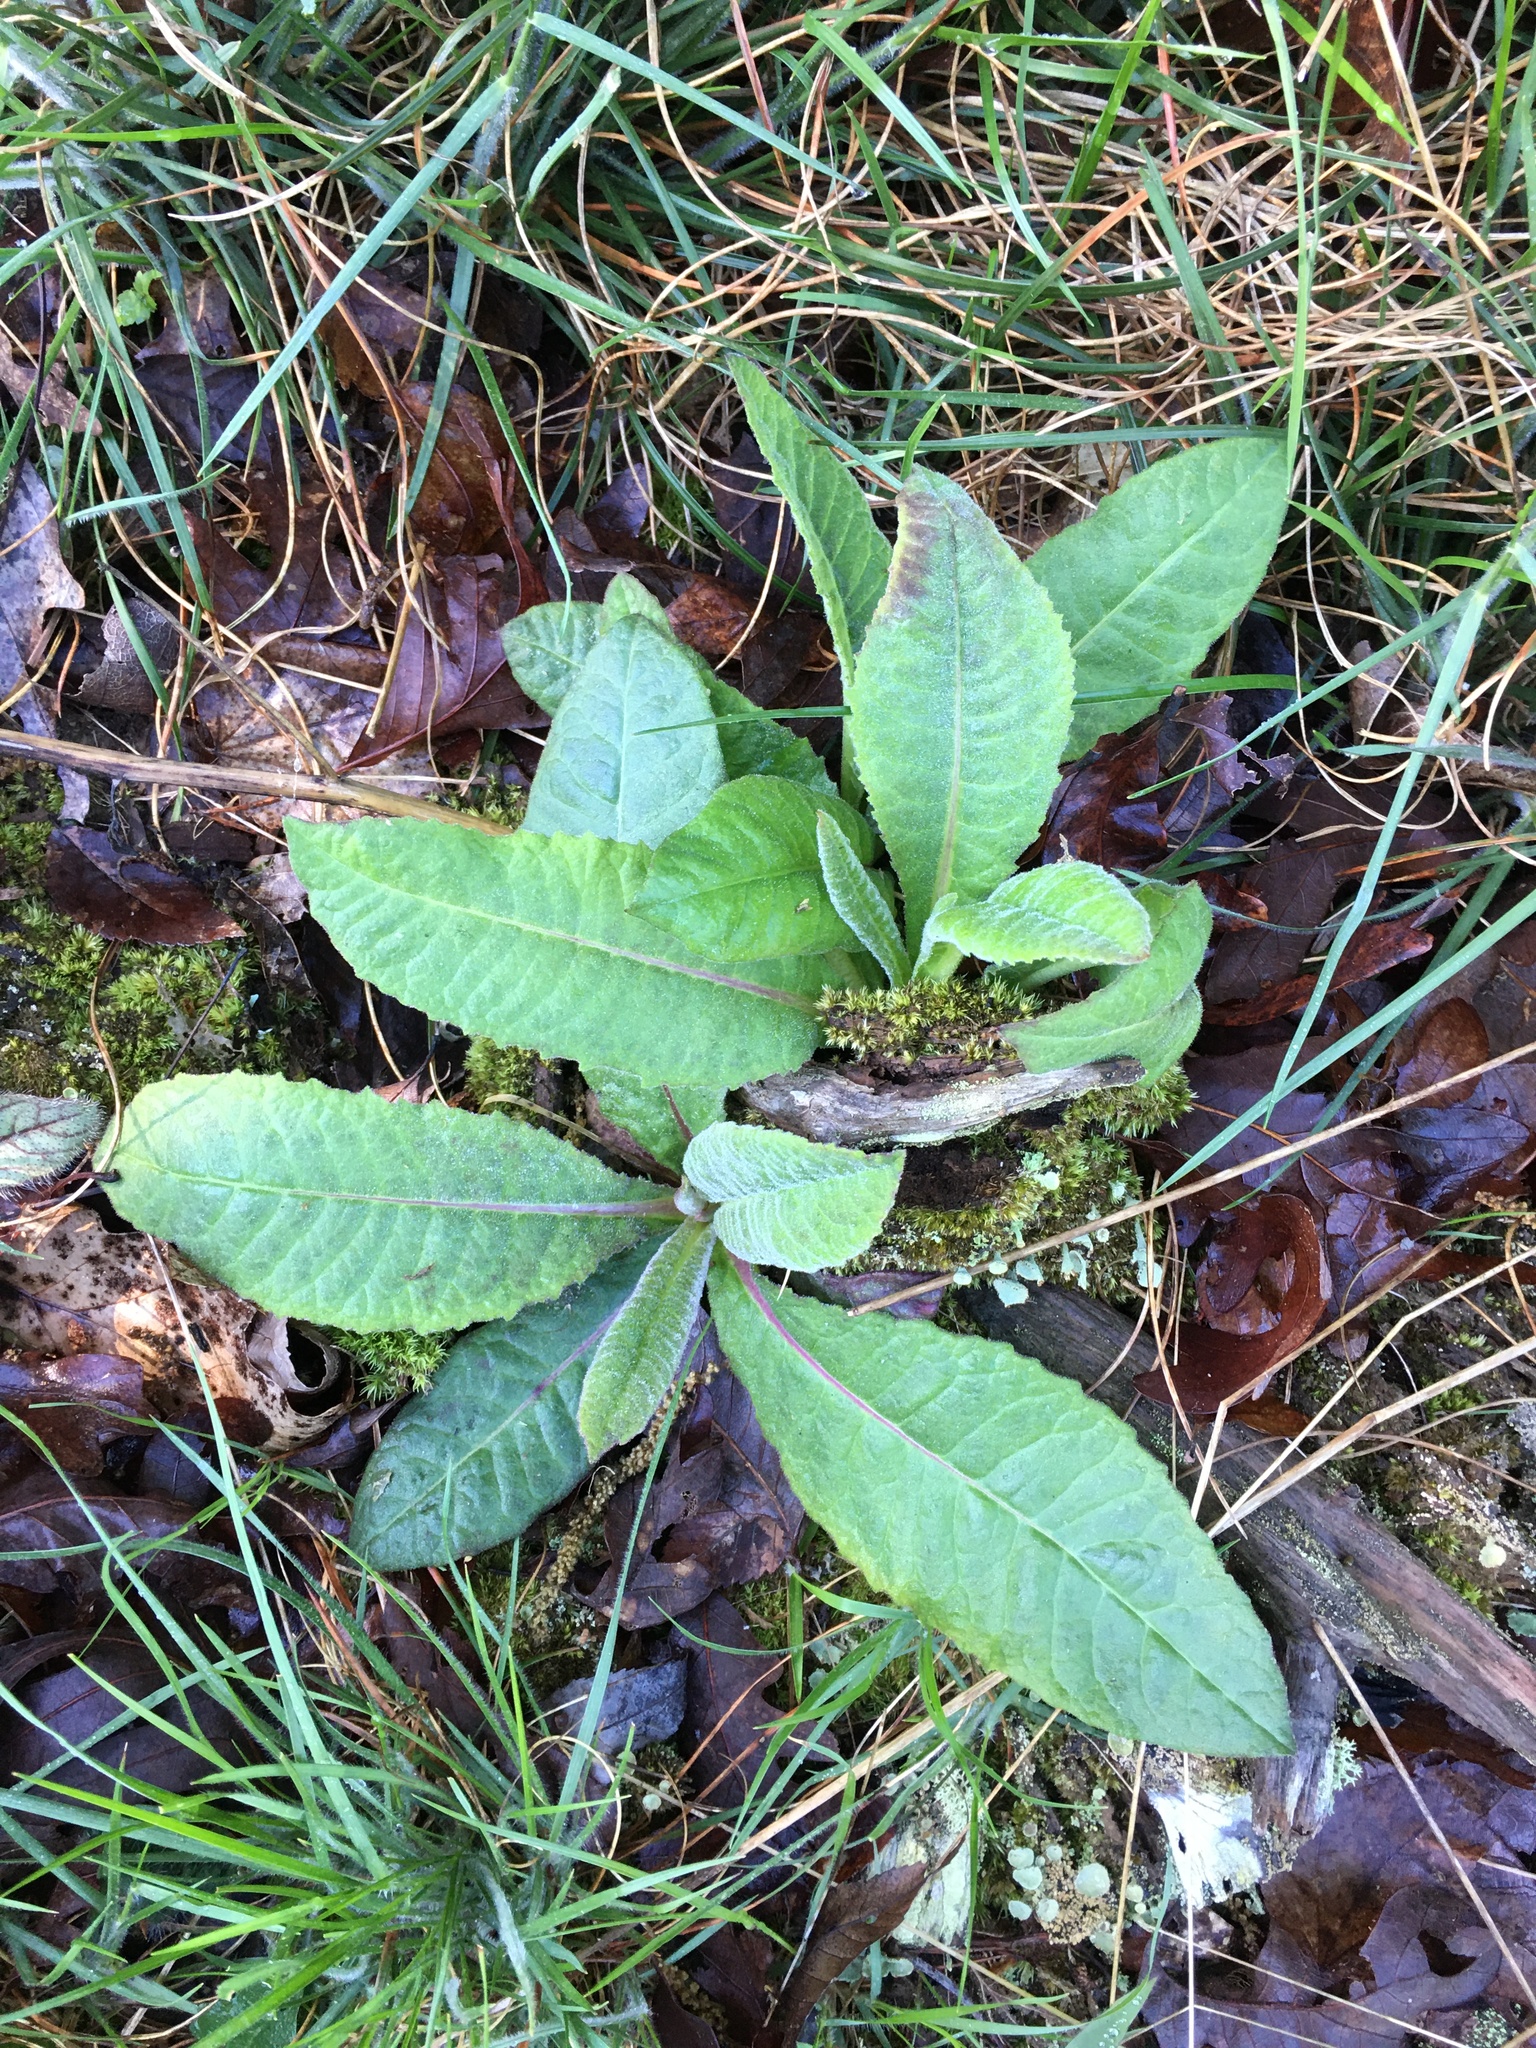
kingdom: Plantae
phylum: Tracheophyta
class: Magnoliopsida
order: Asterales
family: Asteraceae
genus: Vernonia
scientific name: Vernonia acaulis
